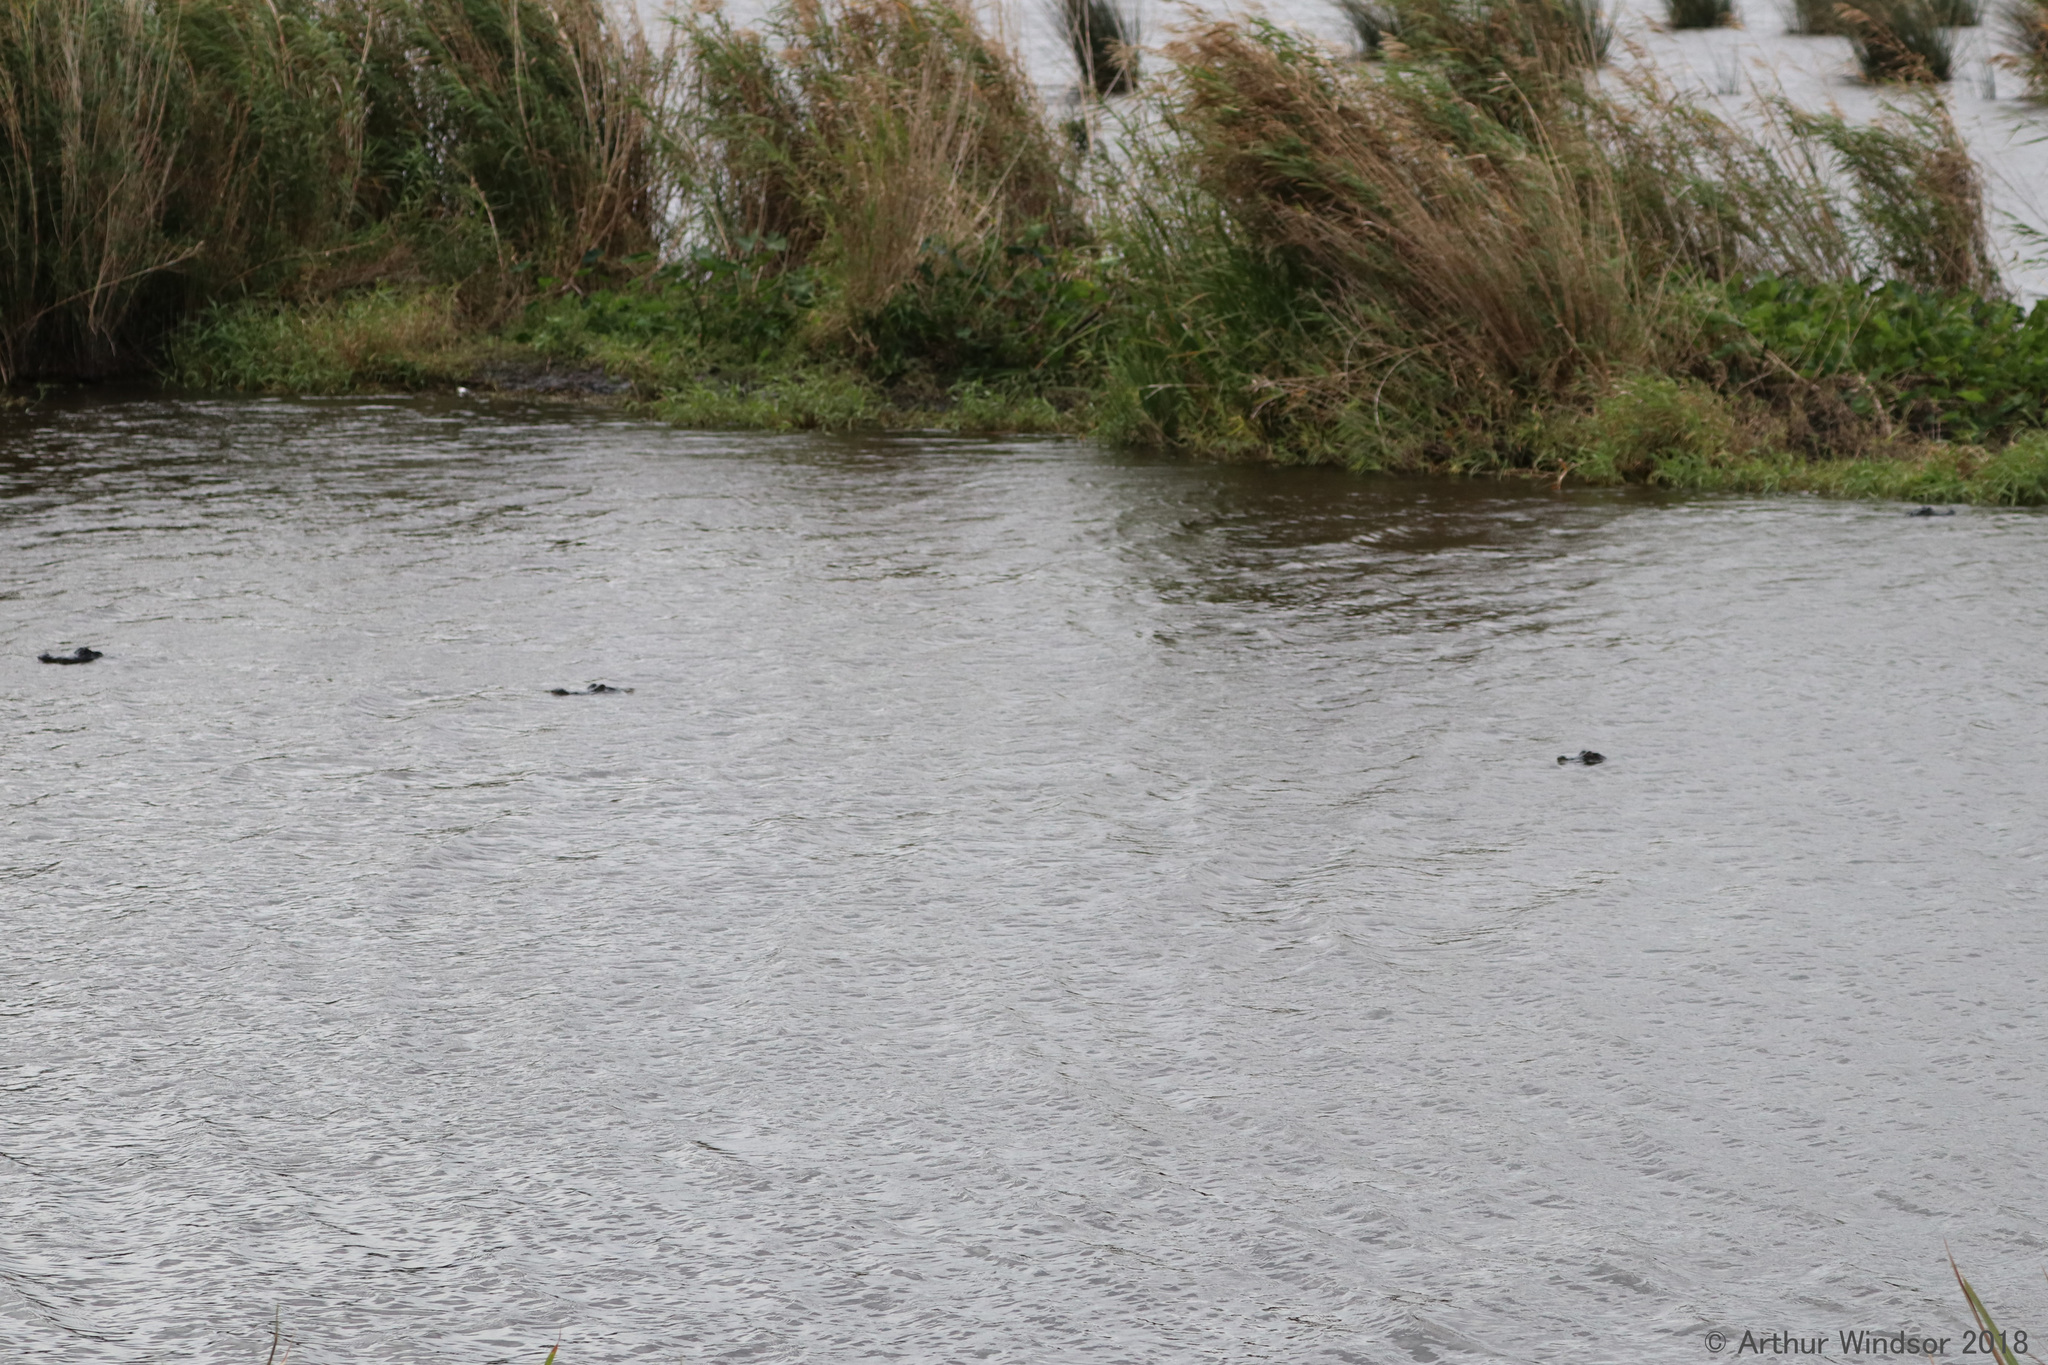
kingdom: Animalia
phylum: Chordata
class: Crocodylia
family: Alligatoridae
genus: Alligator
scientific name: Alligator mississippiensis
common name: American alligator
